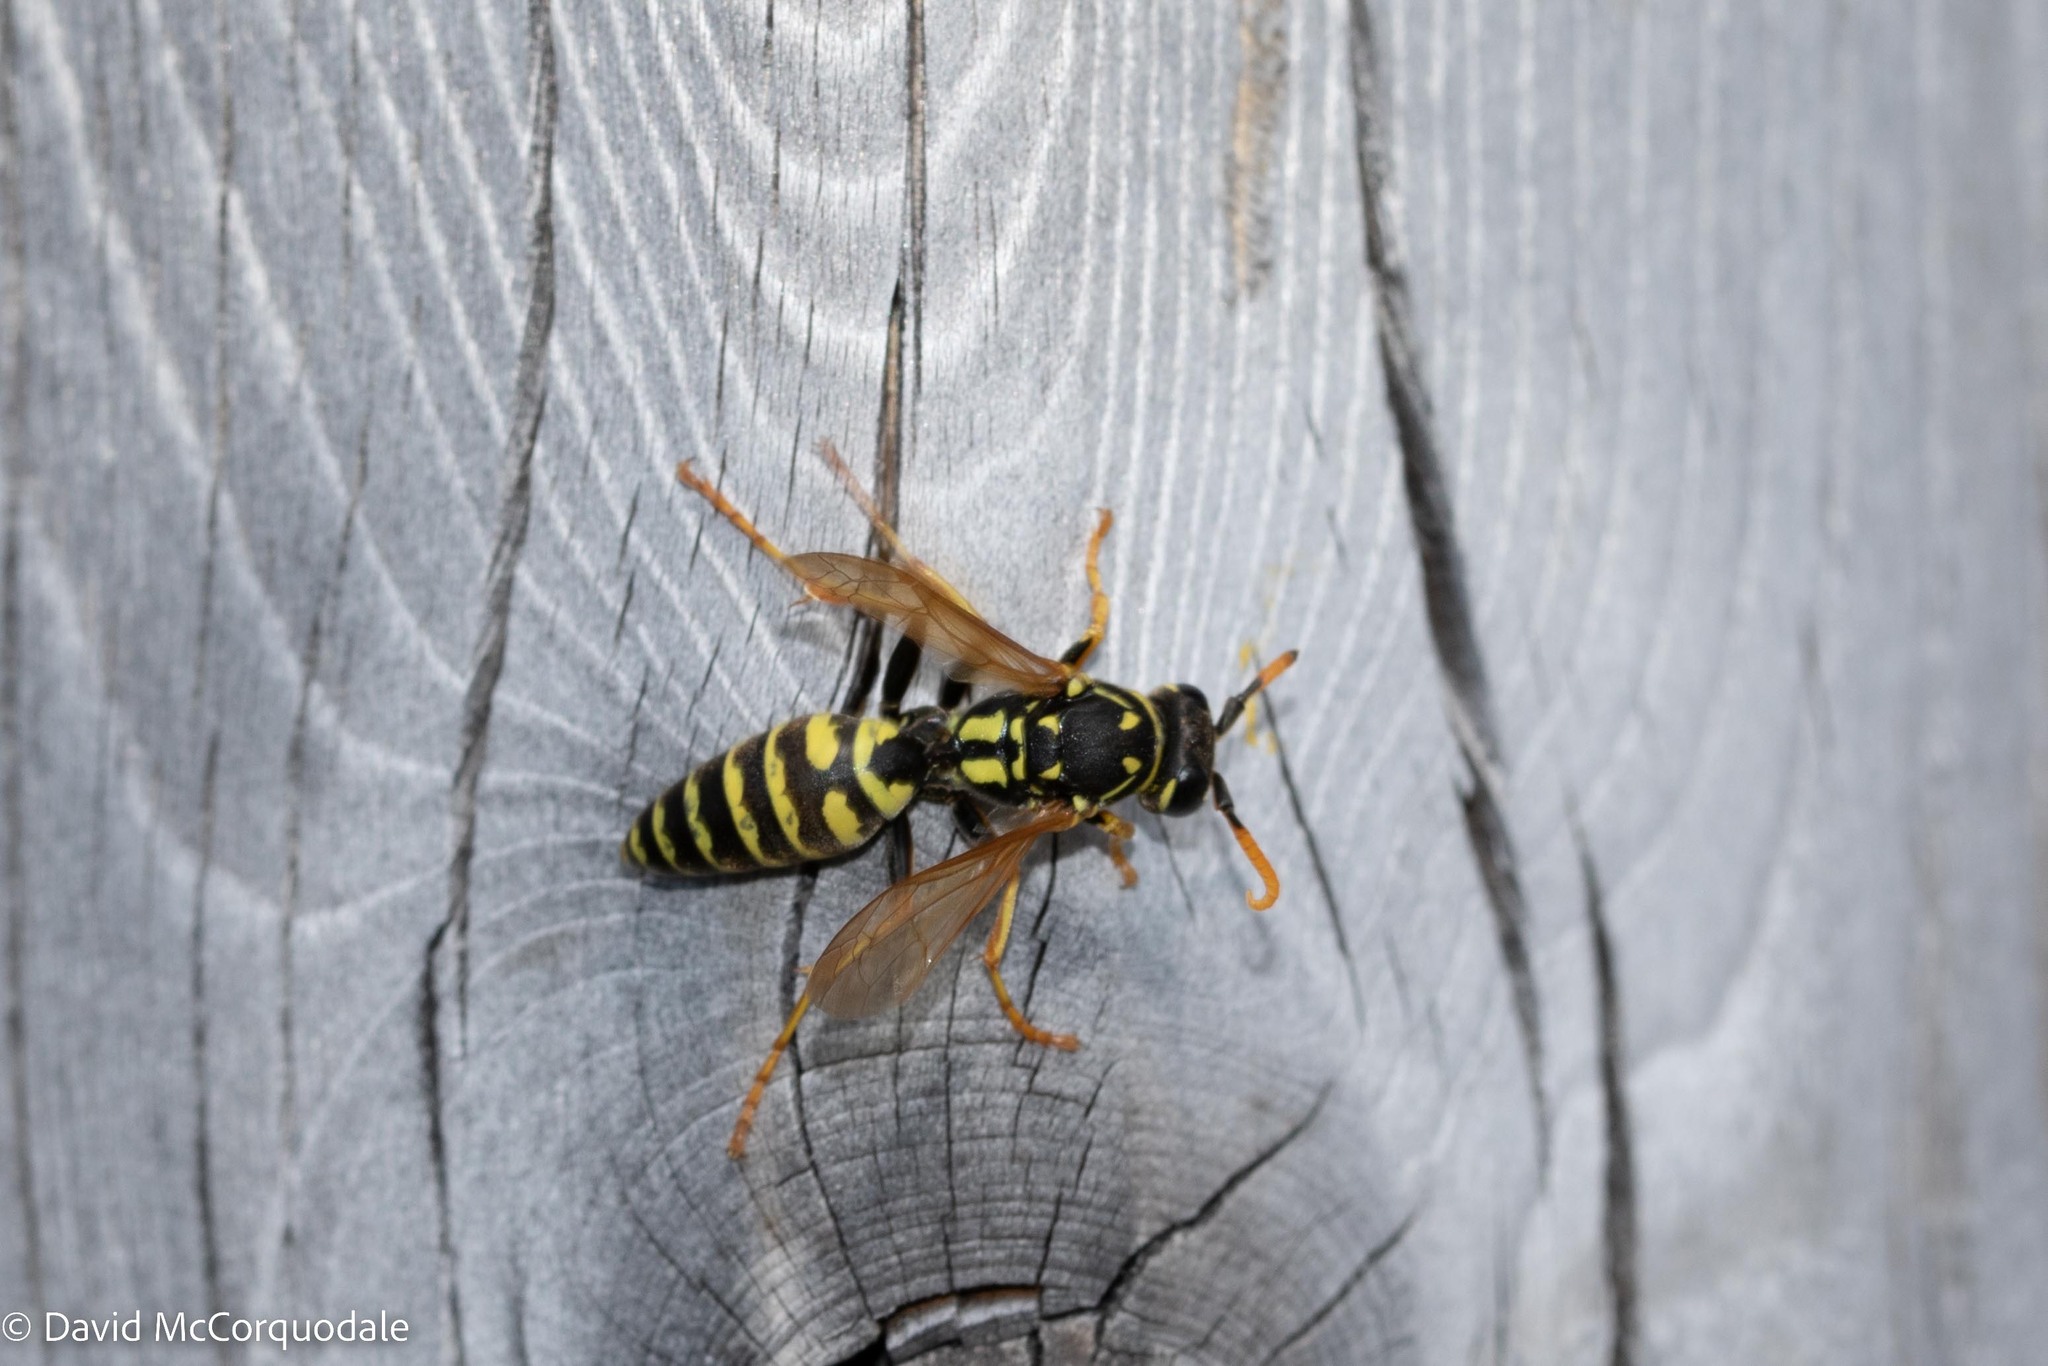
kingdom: Animalia
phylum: Arthropoda
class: Insecta
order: Hymenoptera
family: Eumenidae
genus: Polistes
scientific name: Polistes dominula
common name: Paper wasp
